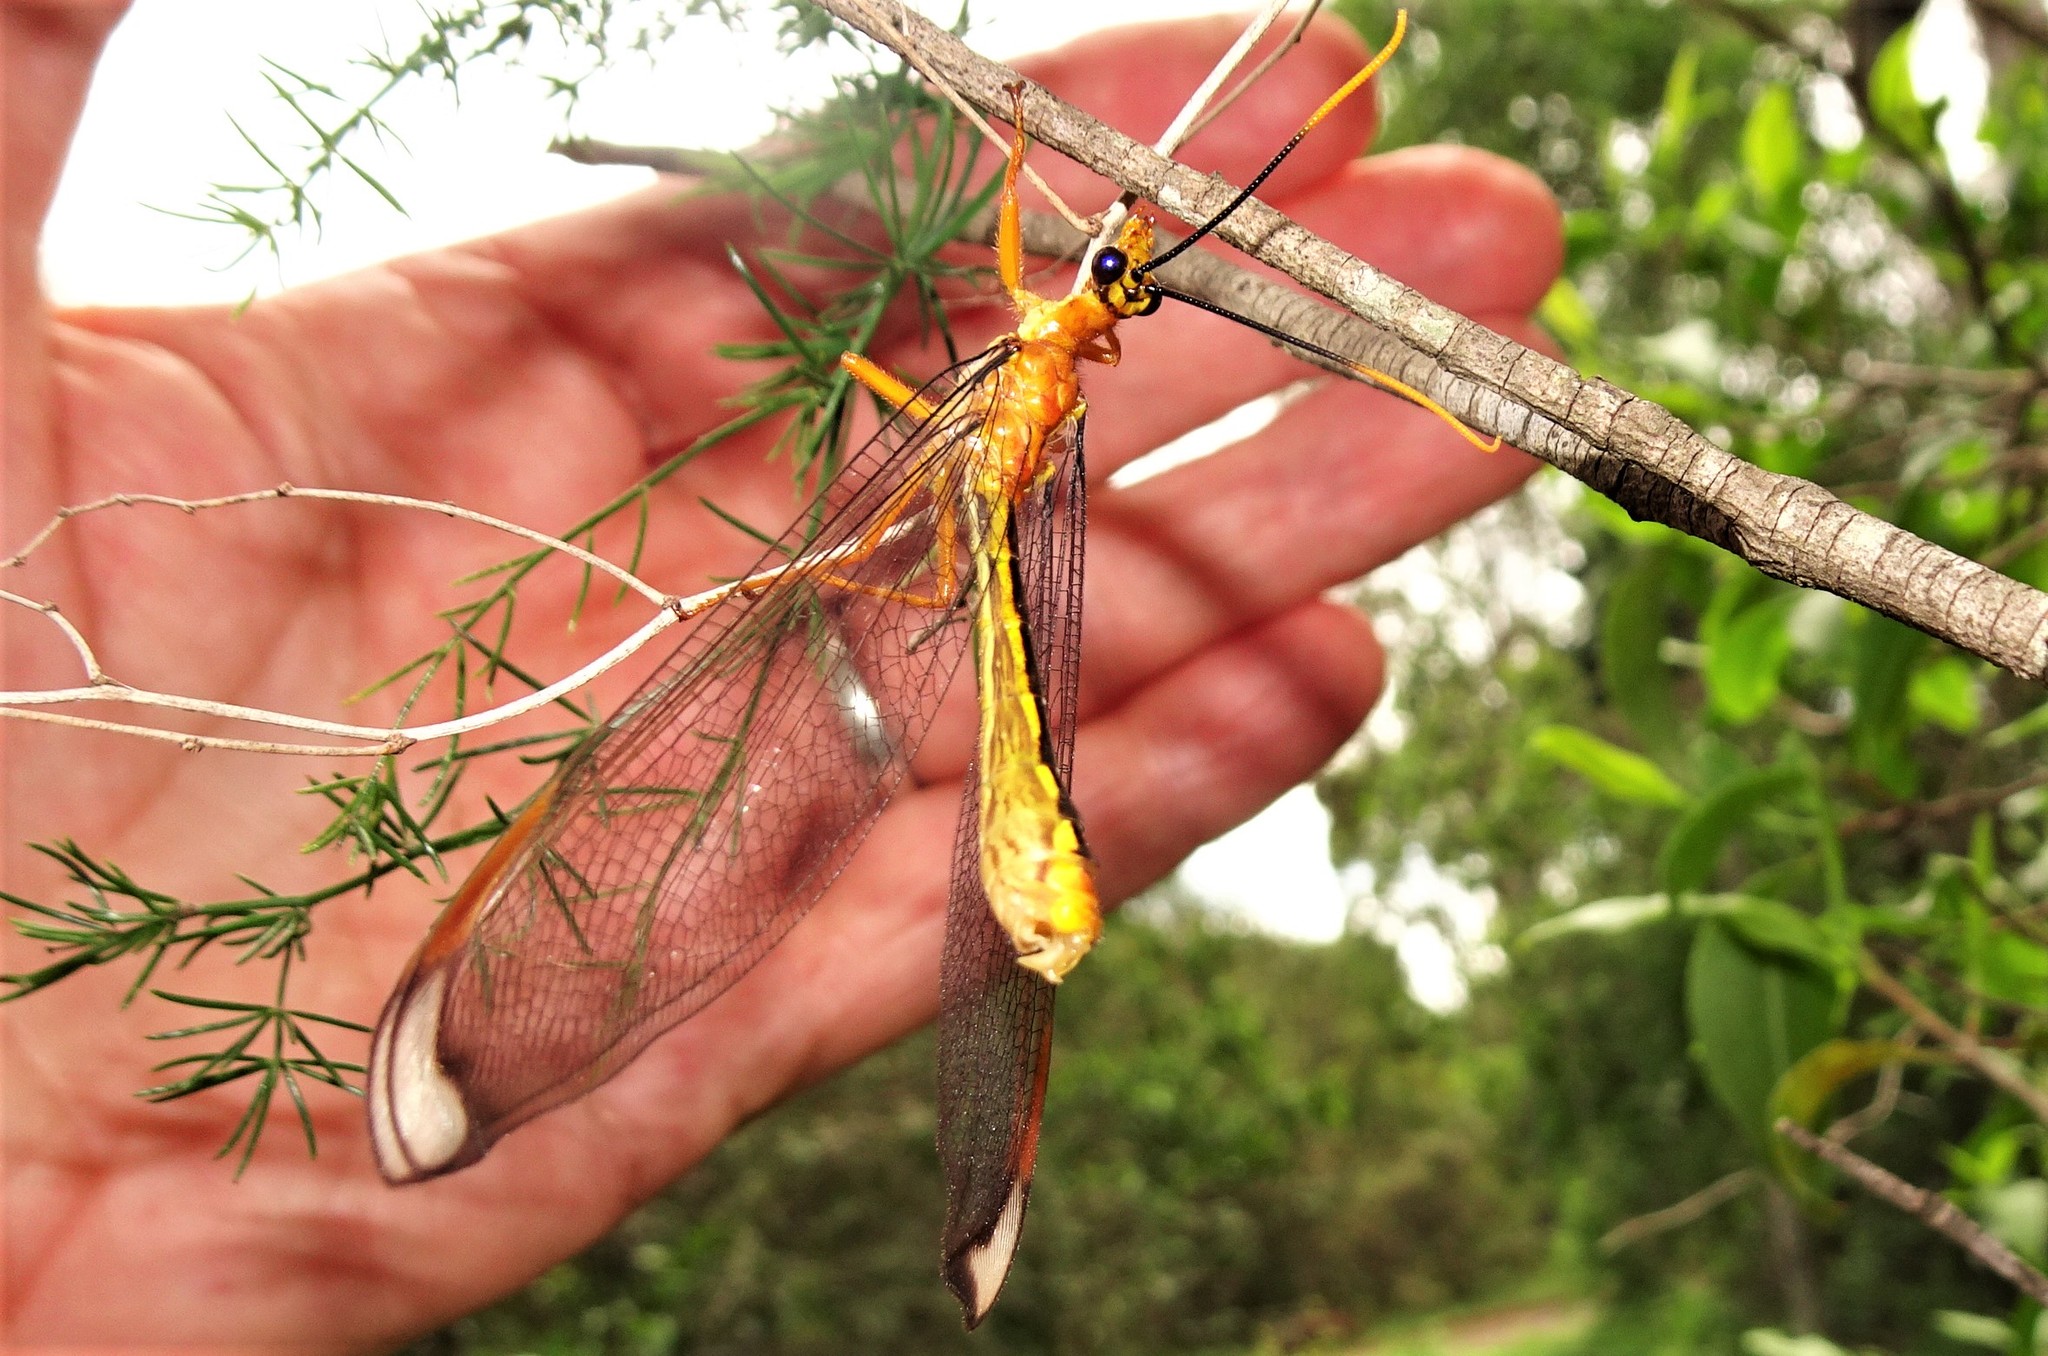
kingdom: Animalia
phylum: Arthropoda
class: Insecta
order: Neuroptera
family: Nymphidae
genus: Nymphes
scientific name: Nymphes myrmeleonoides
